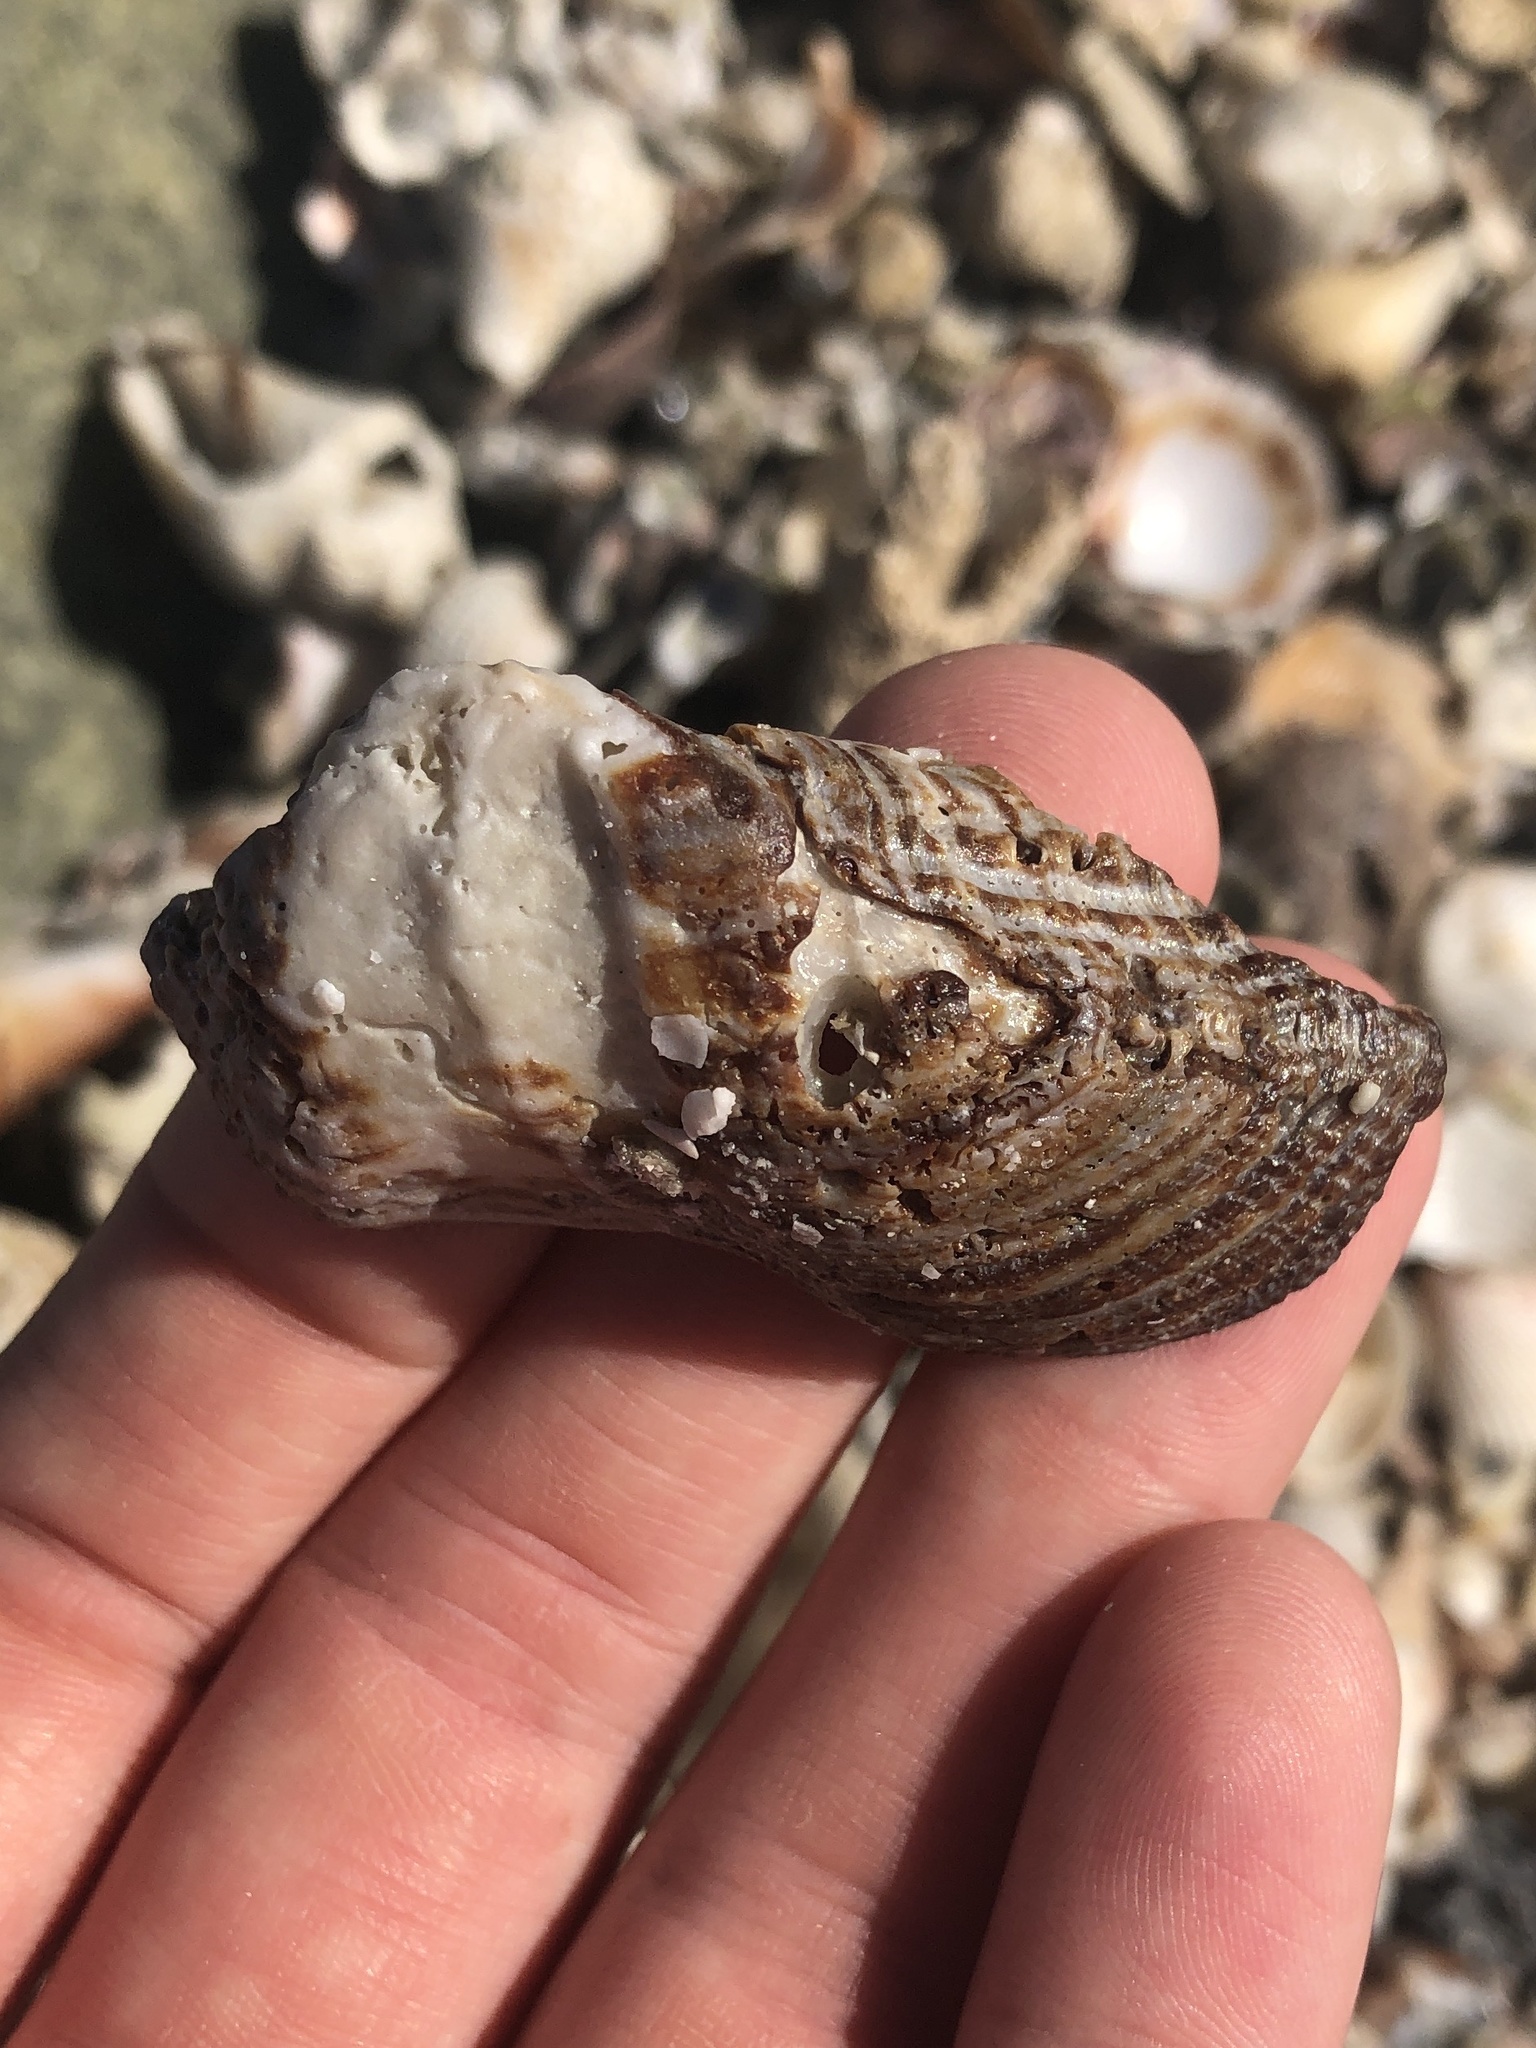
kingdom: Animalia
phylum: Mollusca
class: Bivalvia
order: Arcida
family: Arcidae
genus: Lamarcka
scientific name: Lamarcka imbricata
